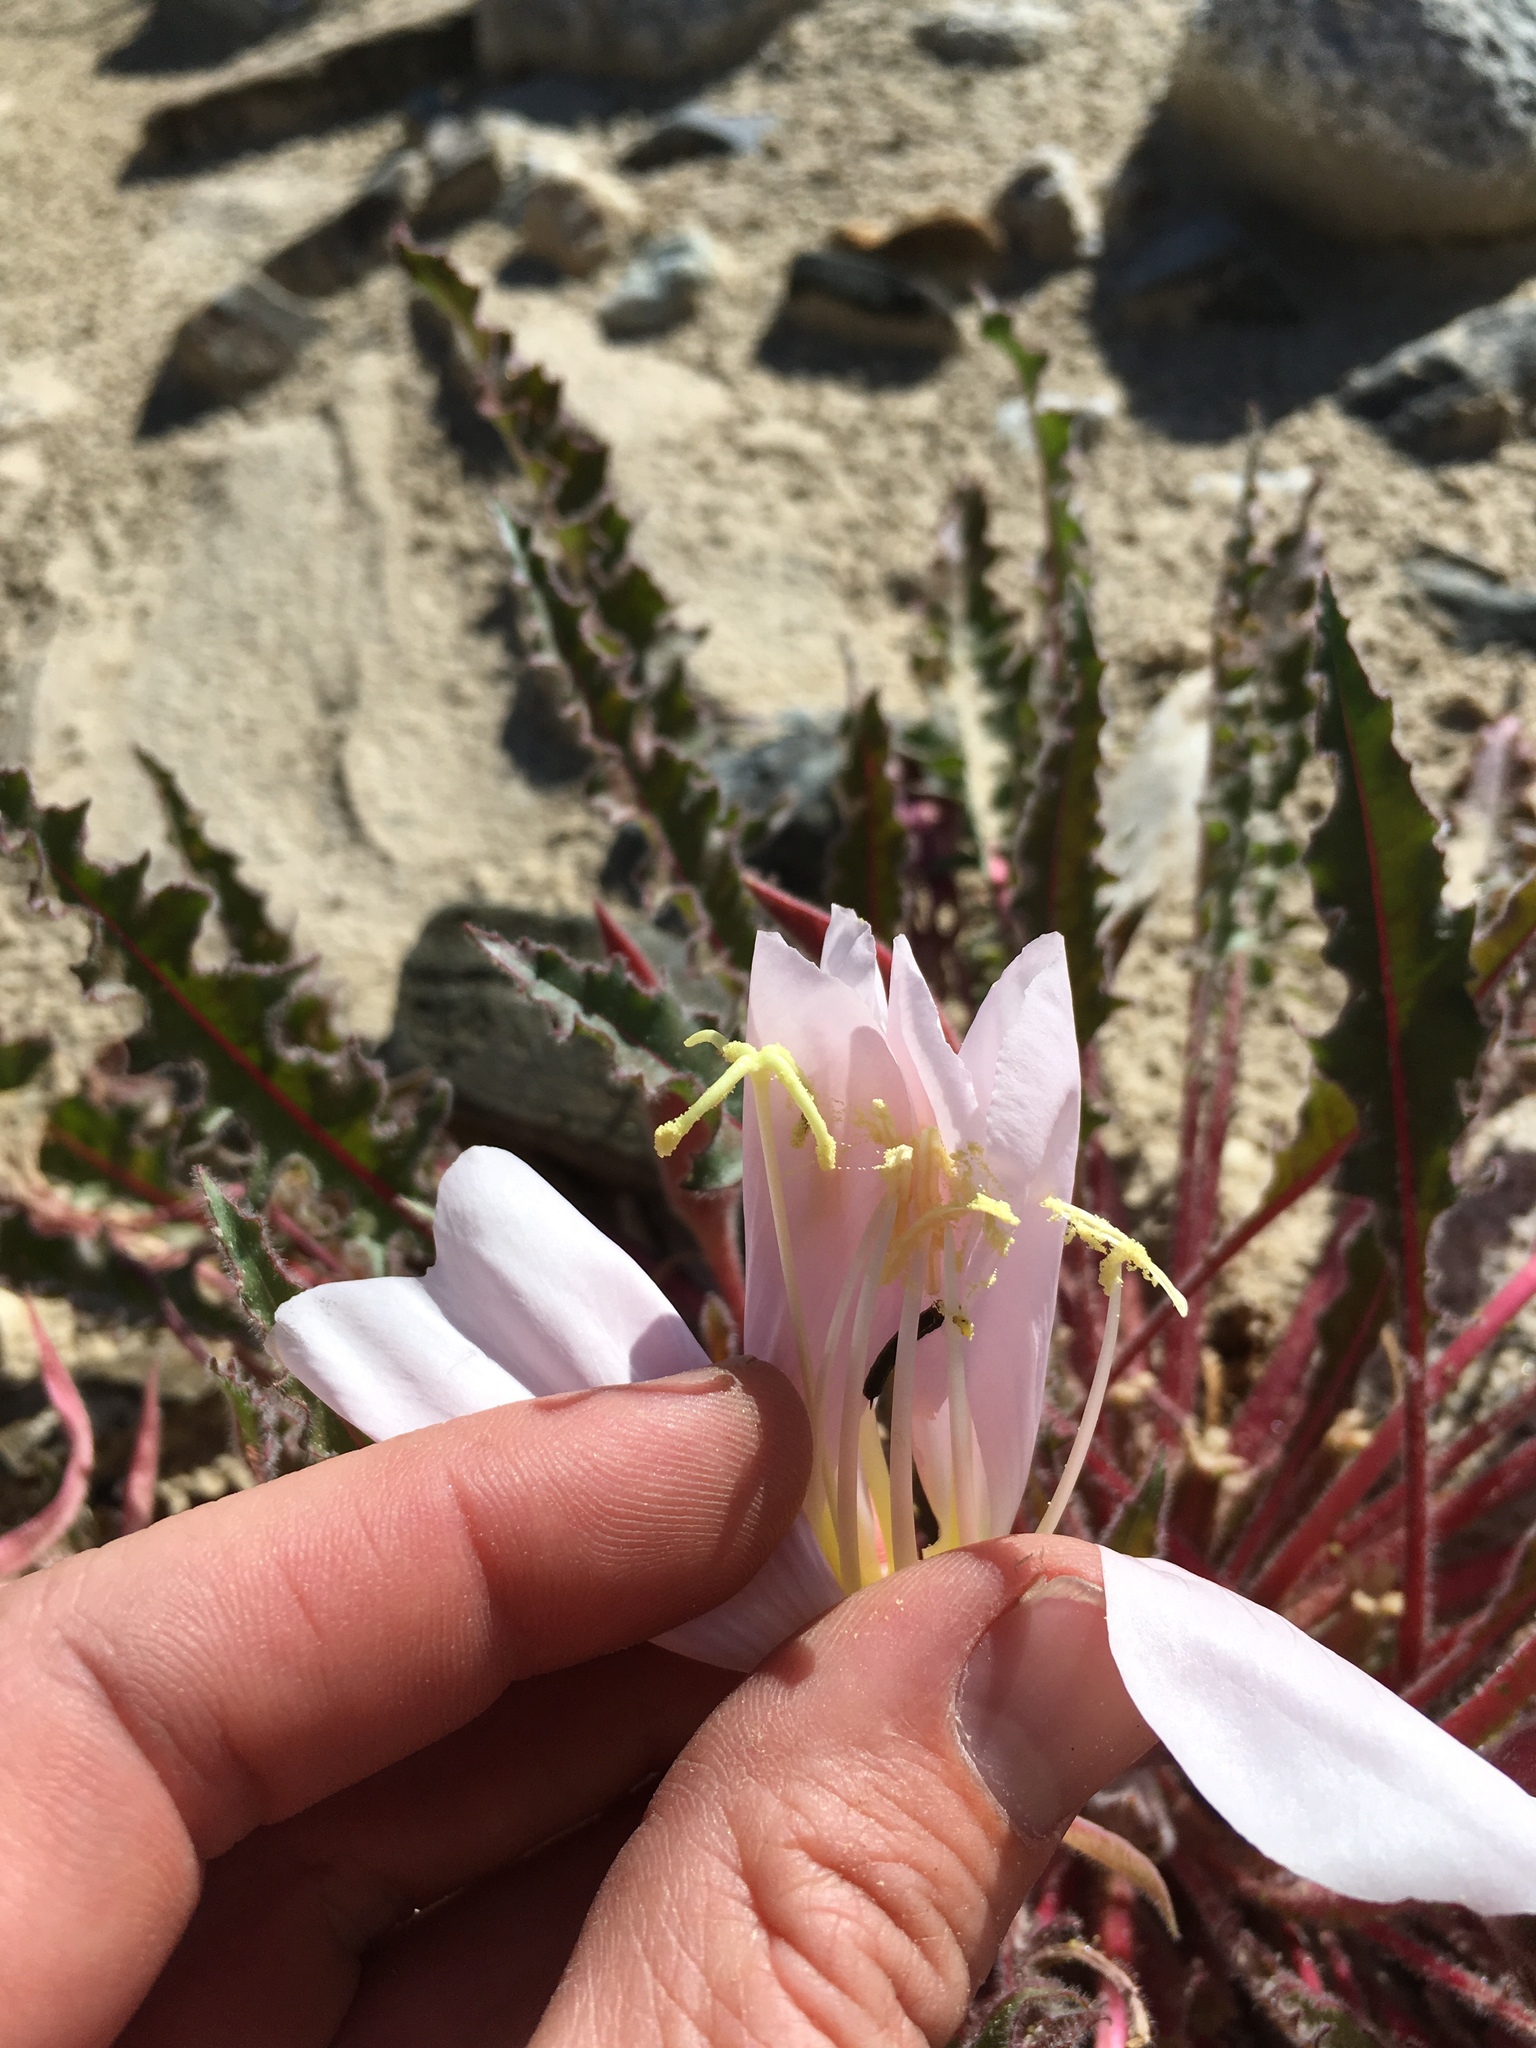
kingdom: Plantae
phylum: Tracheophyta
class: Magnoliopsida
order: Myrtales
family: Onagraceae
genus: Oenothera
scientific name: Oenothera cespitosa
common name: Tufted evening-primrose
